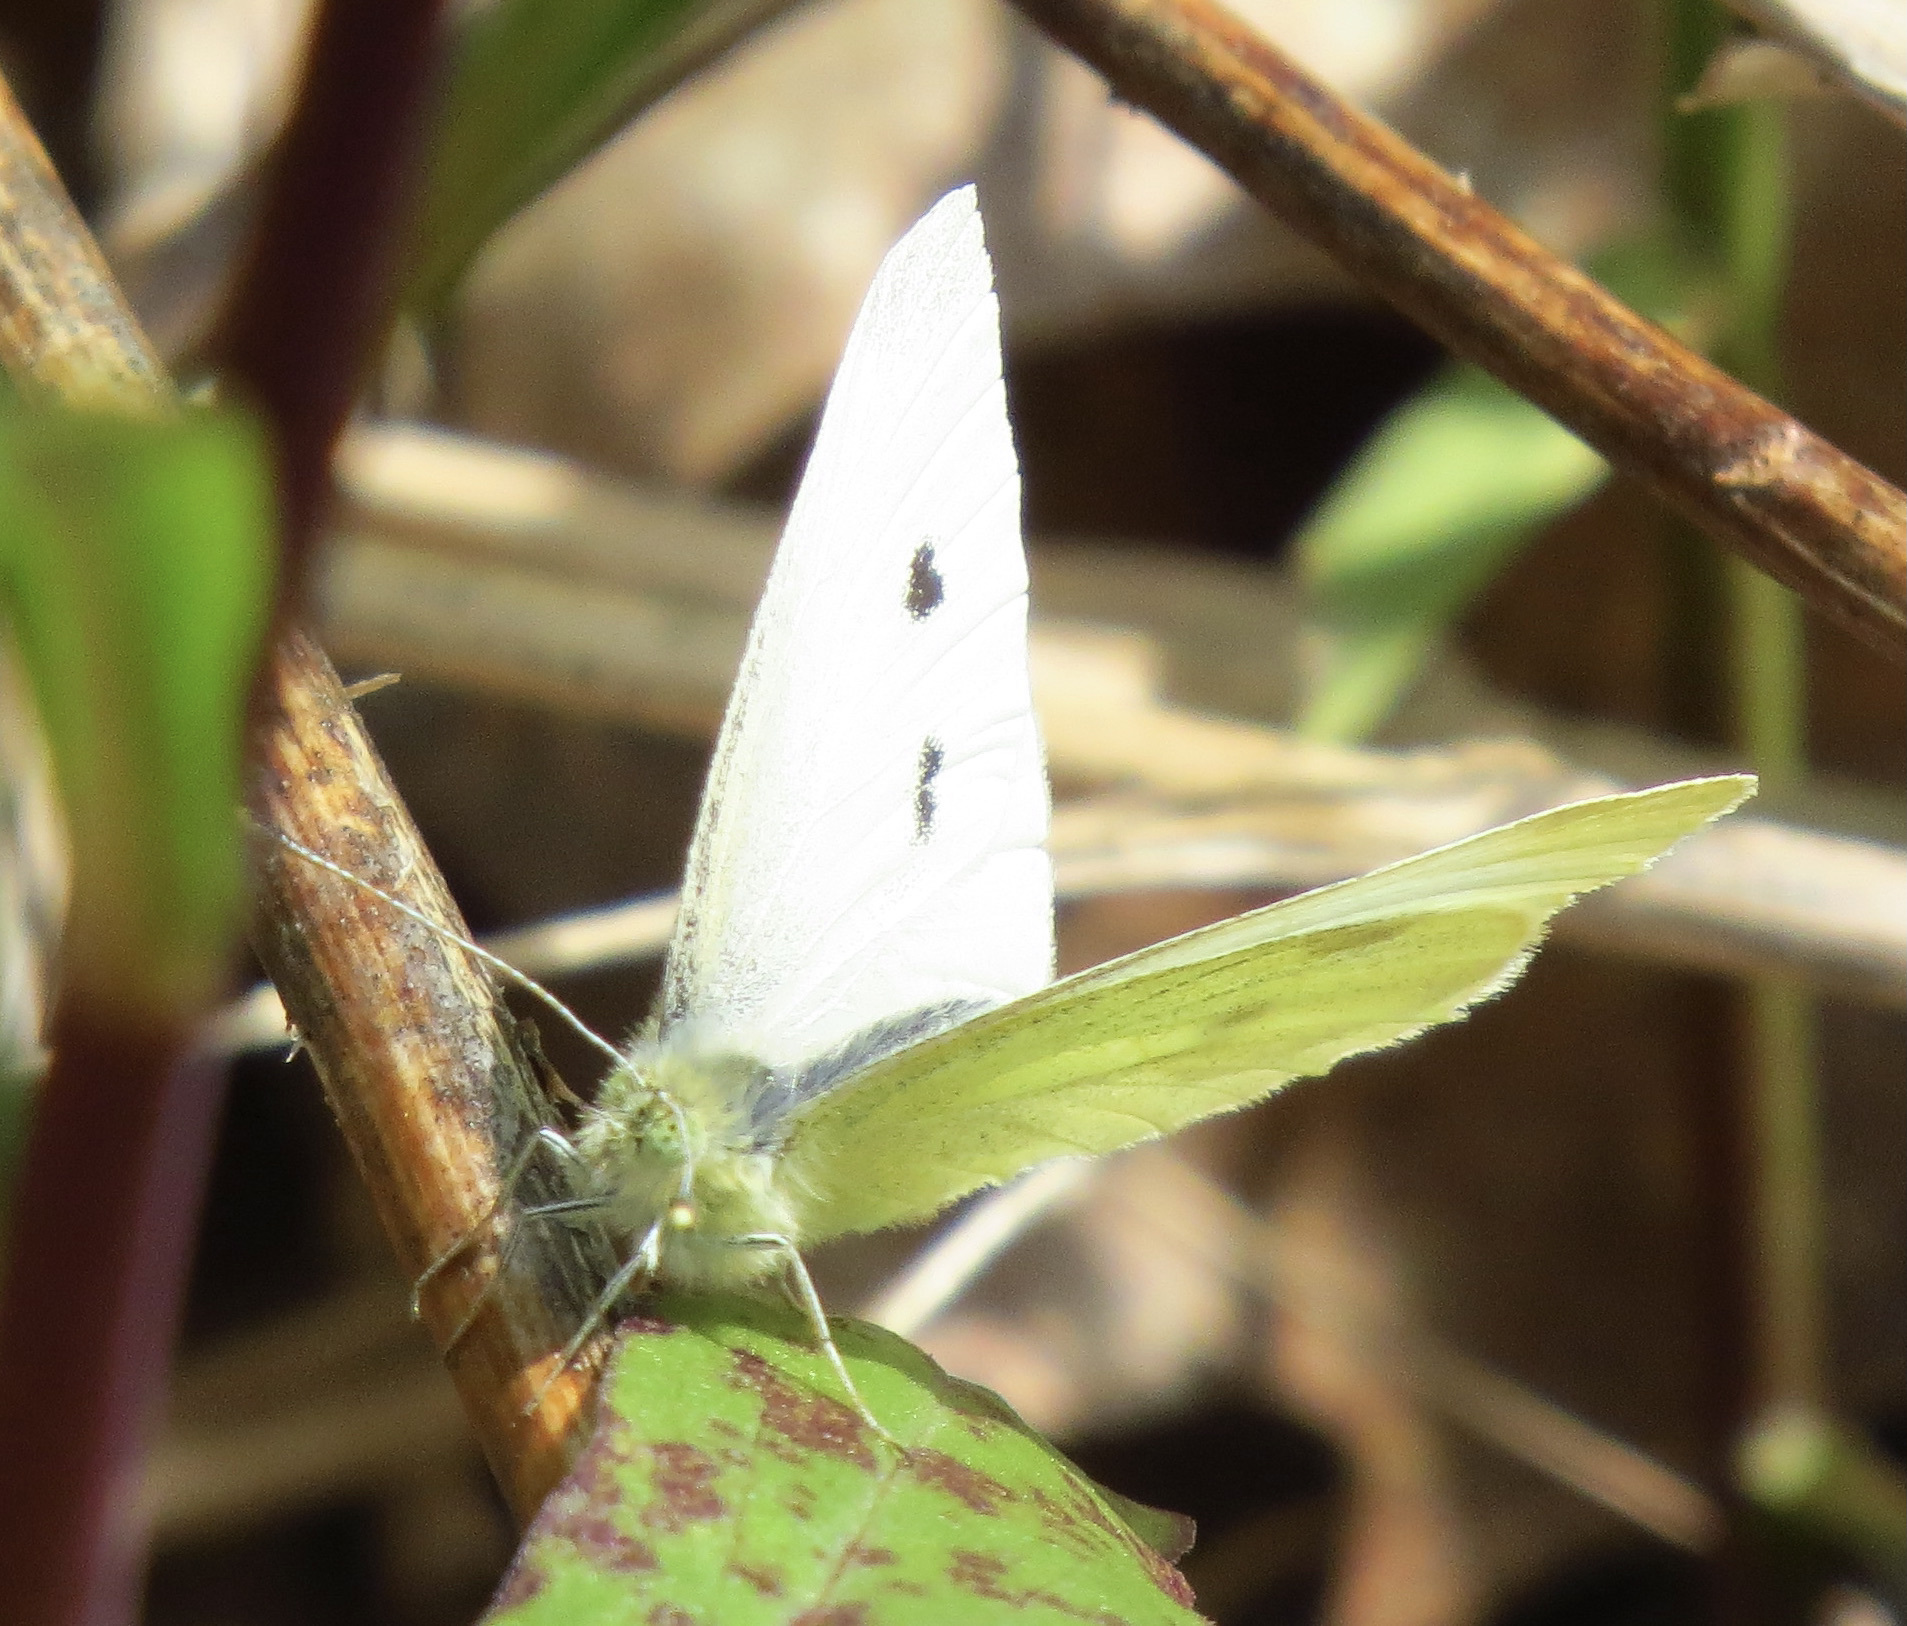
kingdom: Animalia
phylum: Arthropoda
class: Insecta
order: Lepidoptera
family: Pieridae
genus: Pieris
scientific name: Pieris rapae
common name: Small white
